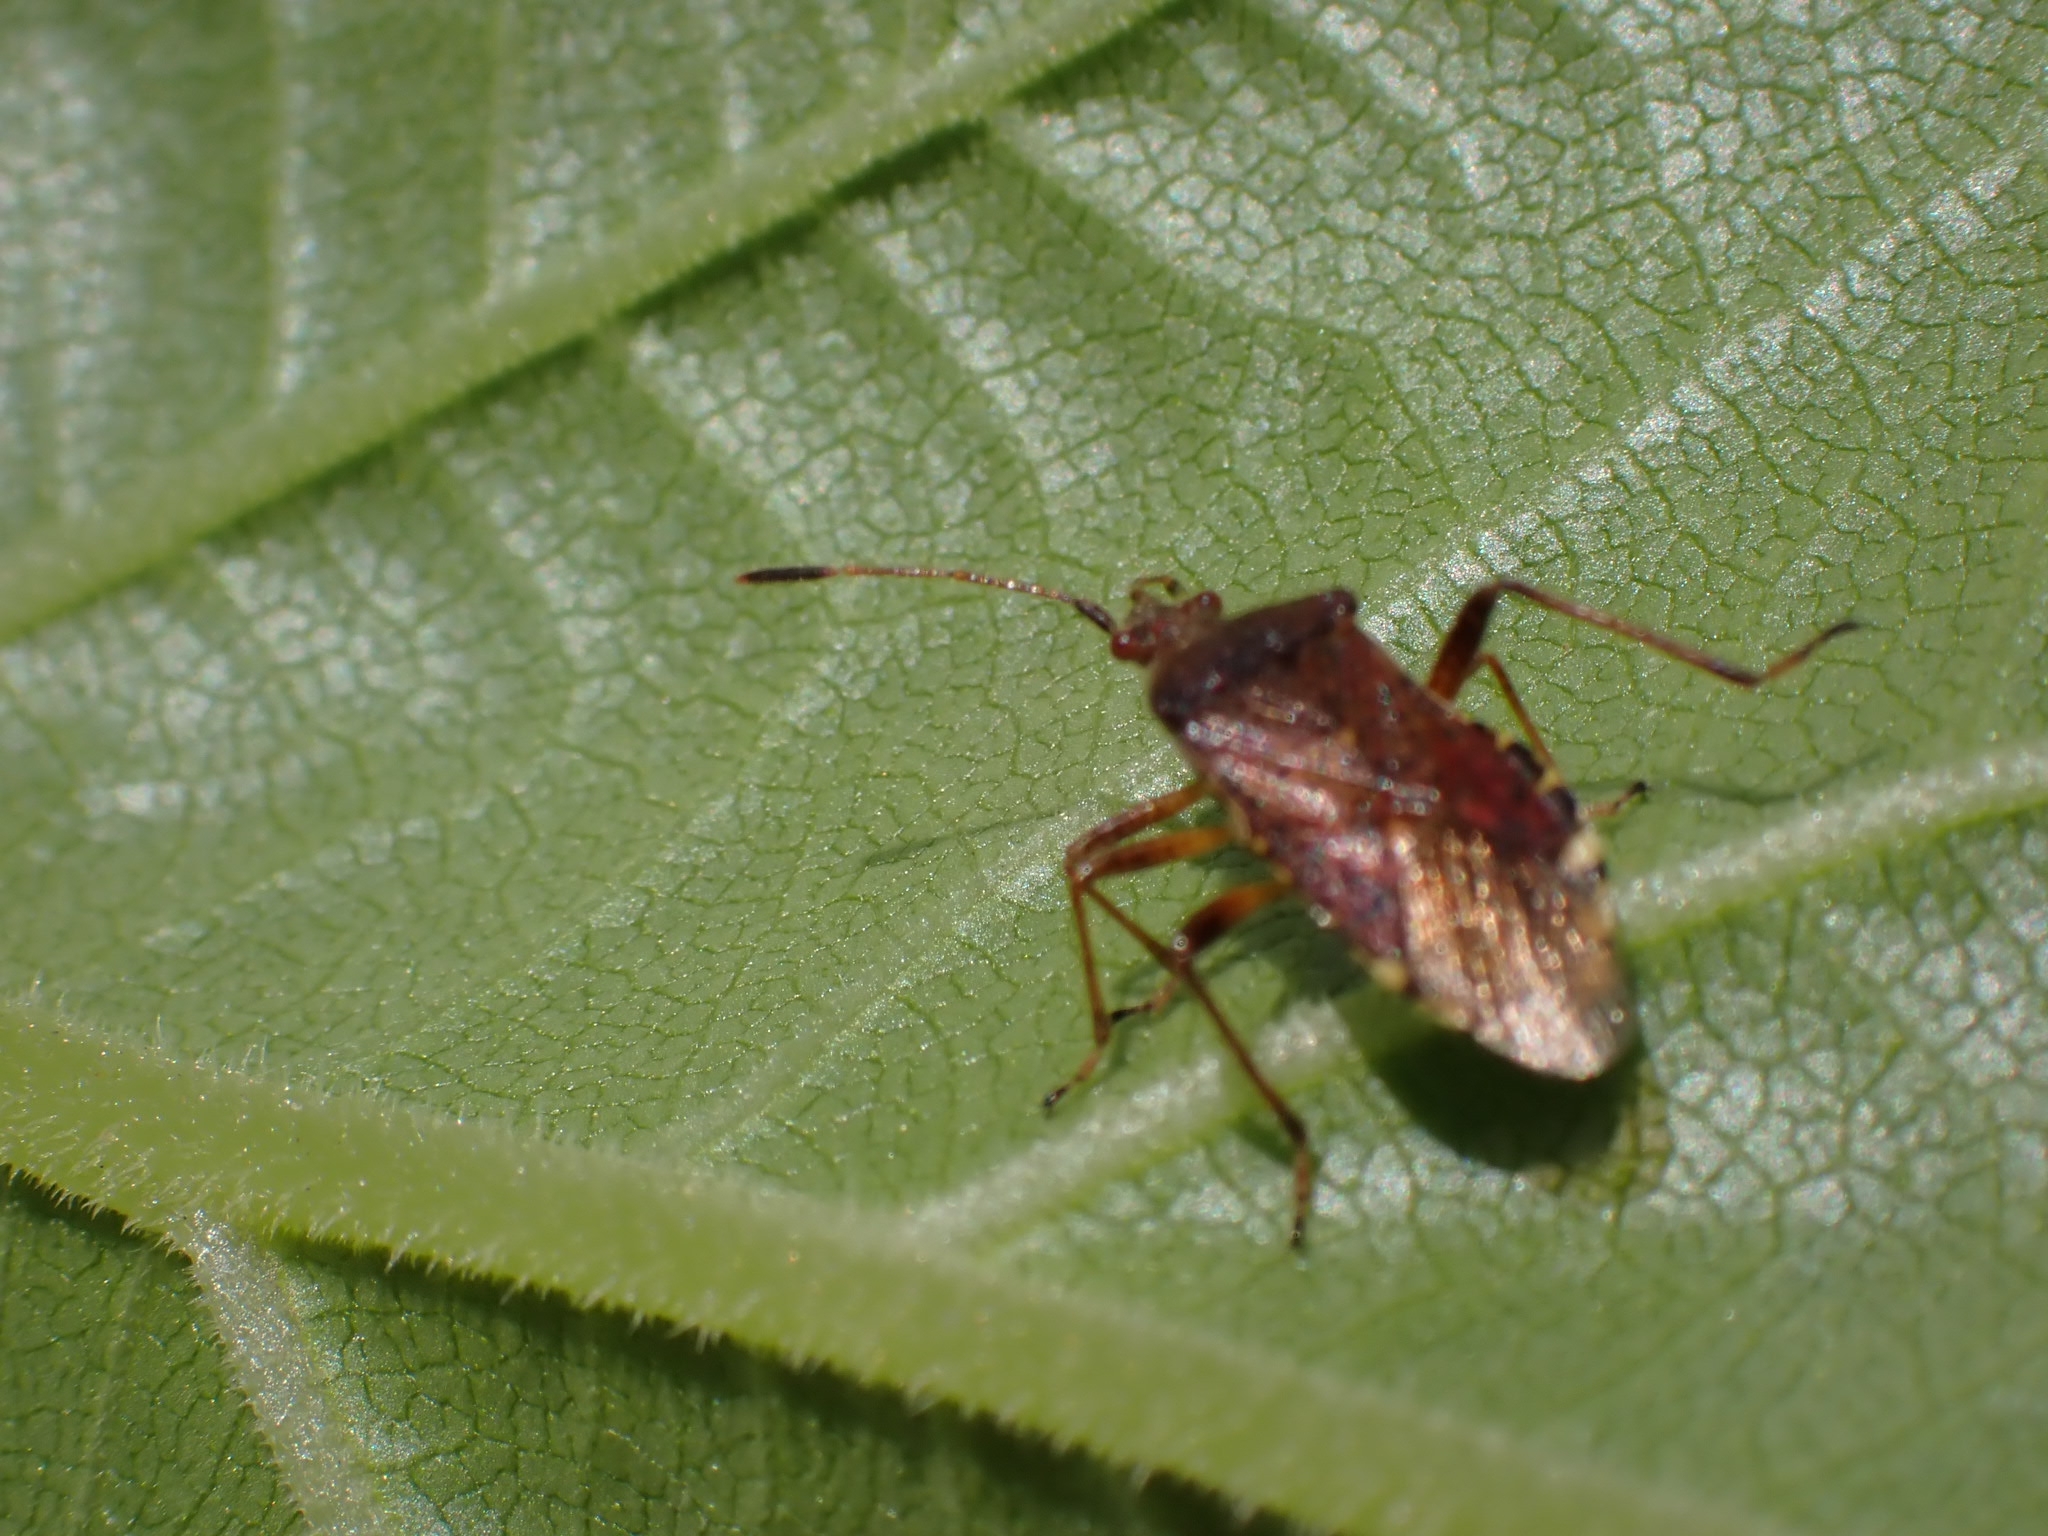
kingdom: Animalia
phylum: Arthropoda
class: Insecta
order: Hemiptera
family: Rhopalidae
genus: Rhopalus
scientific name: Rhopalus latus
